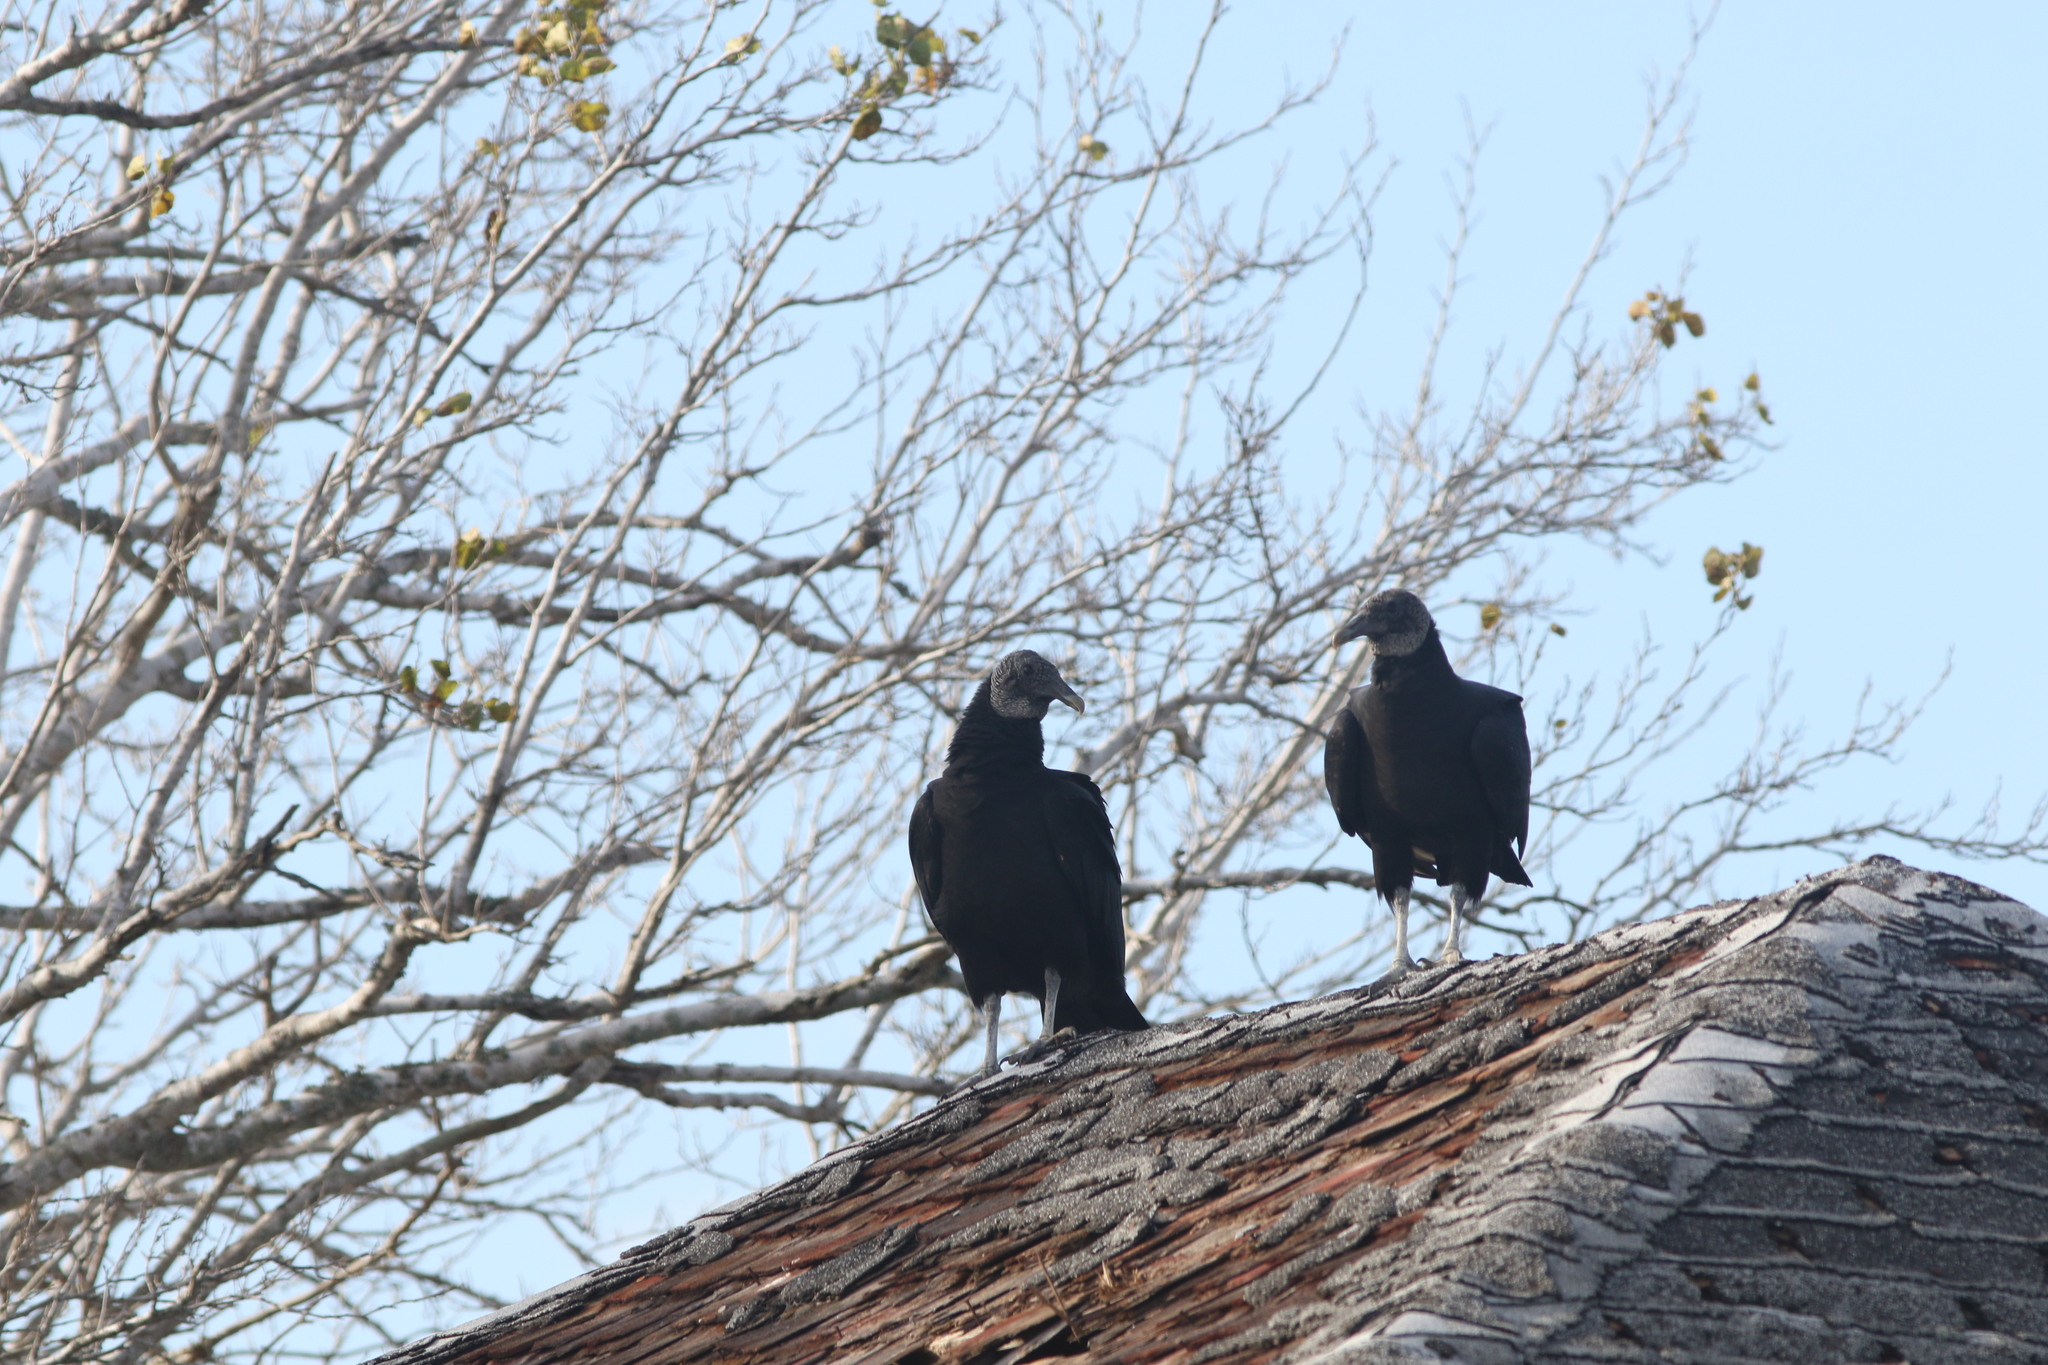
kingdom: Animalia
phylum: Chordata
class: Aves
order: Accipitriformes
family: Cathartidae
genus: Coragyps
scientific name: Coragyps atratus
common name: Black vulture
